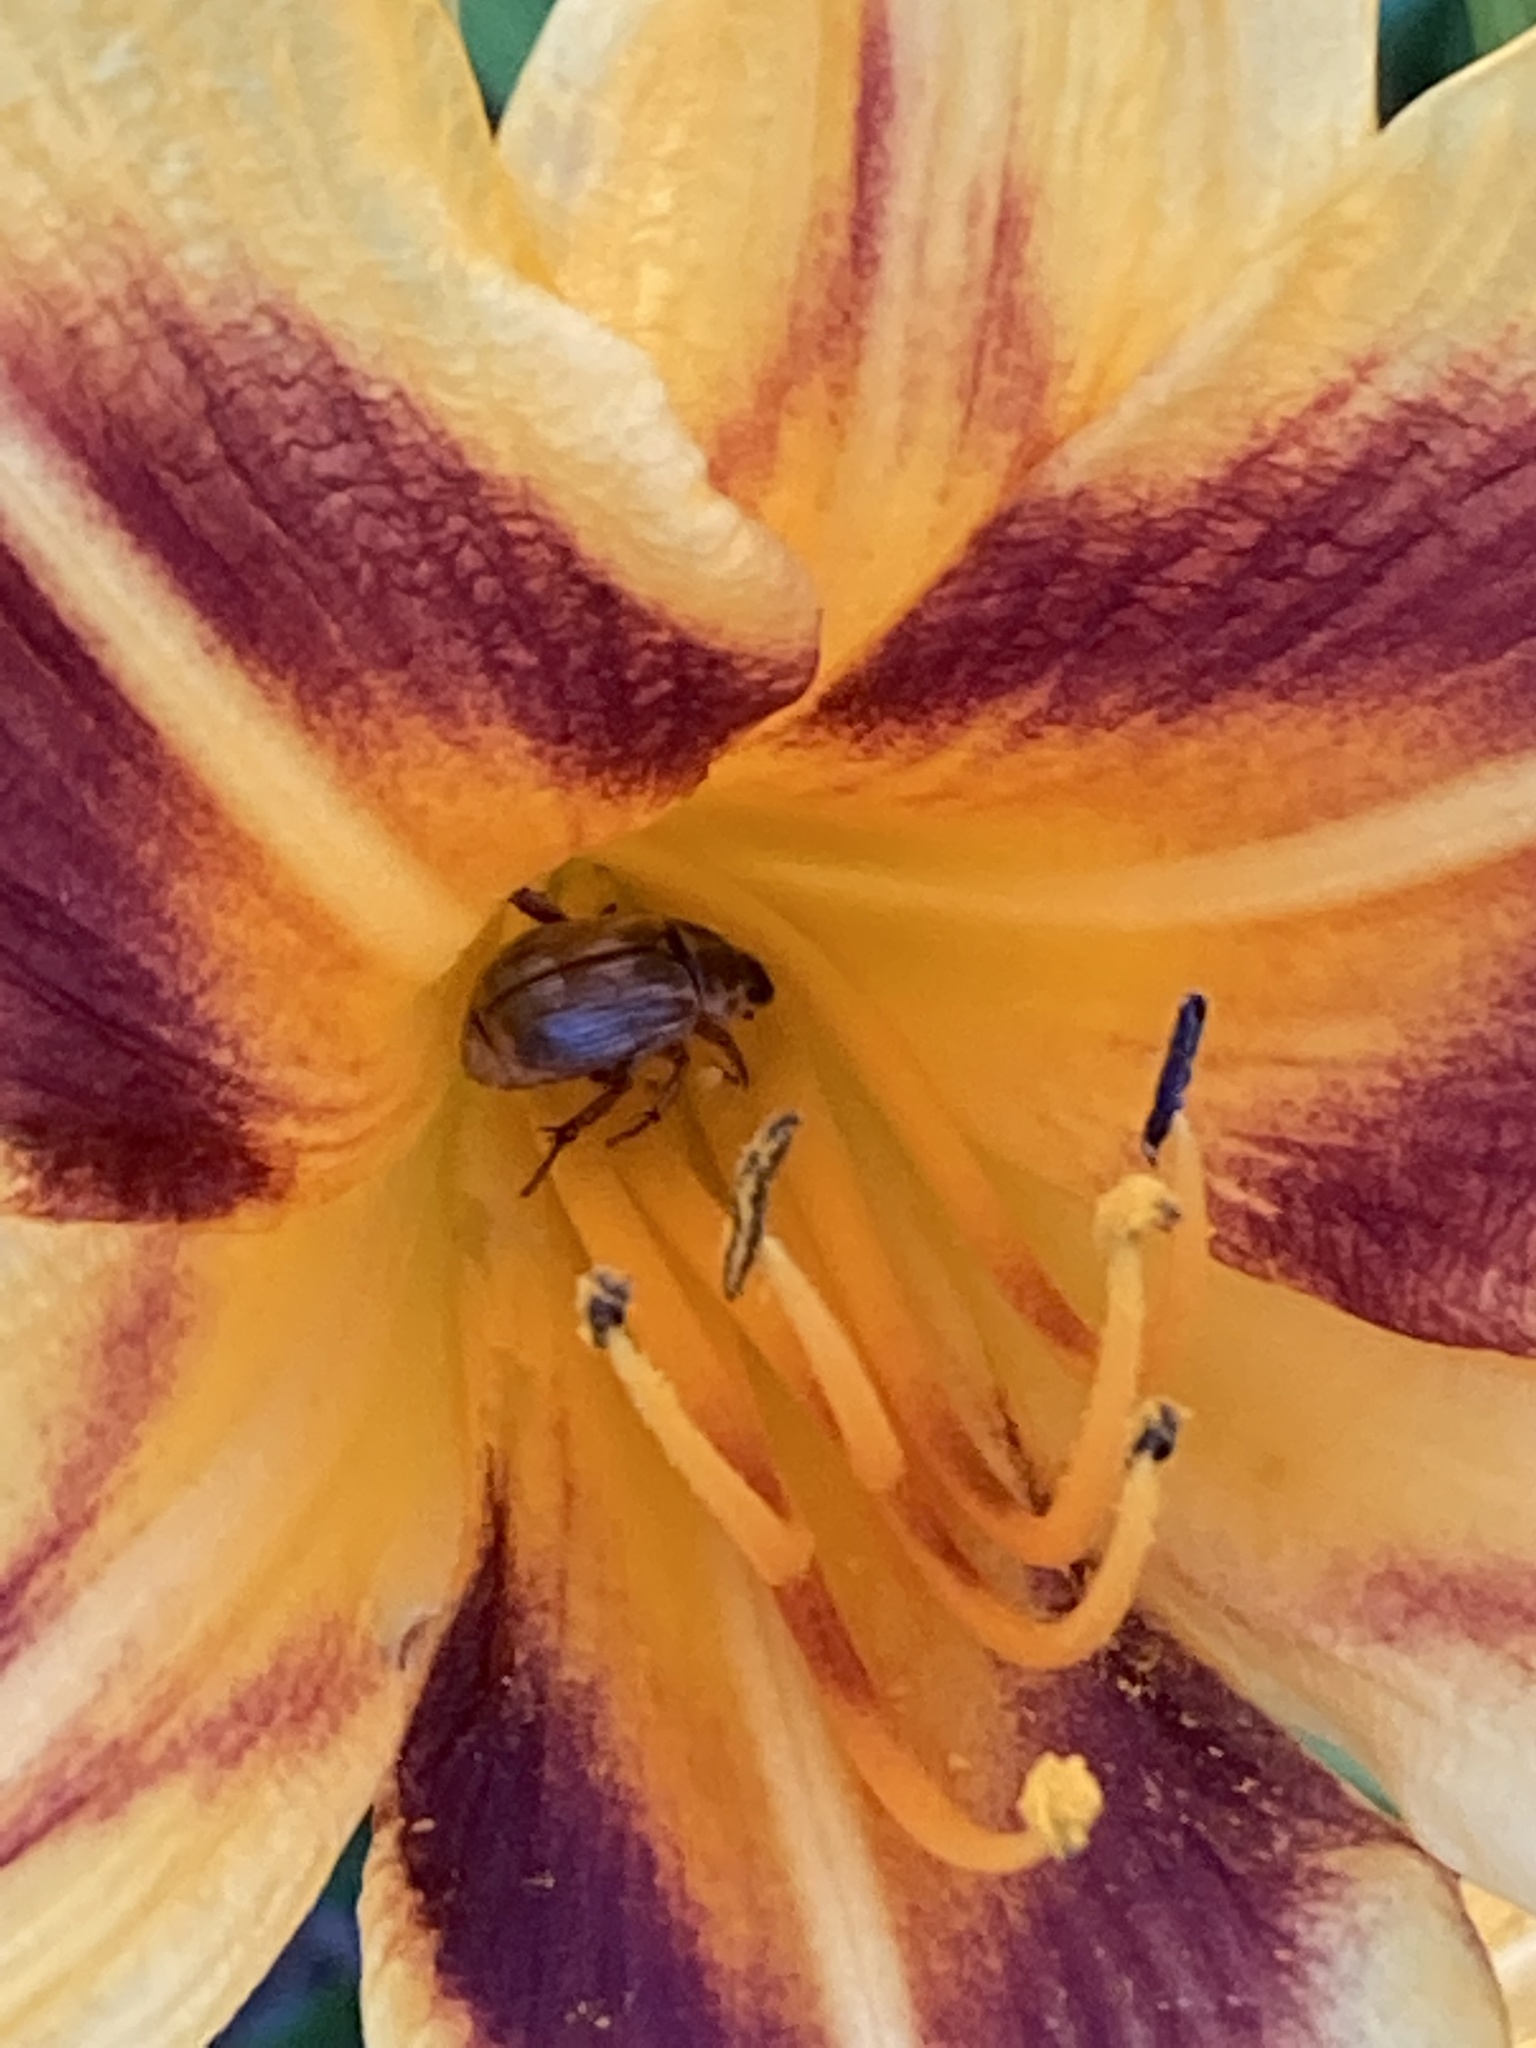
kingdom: Animalia
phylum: Arthropoda
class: Insecta
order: Coleoptera
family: Scarabaeidae
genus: Exomala
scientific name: Exomala orientalis
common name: Oriental beetle
